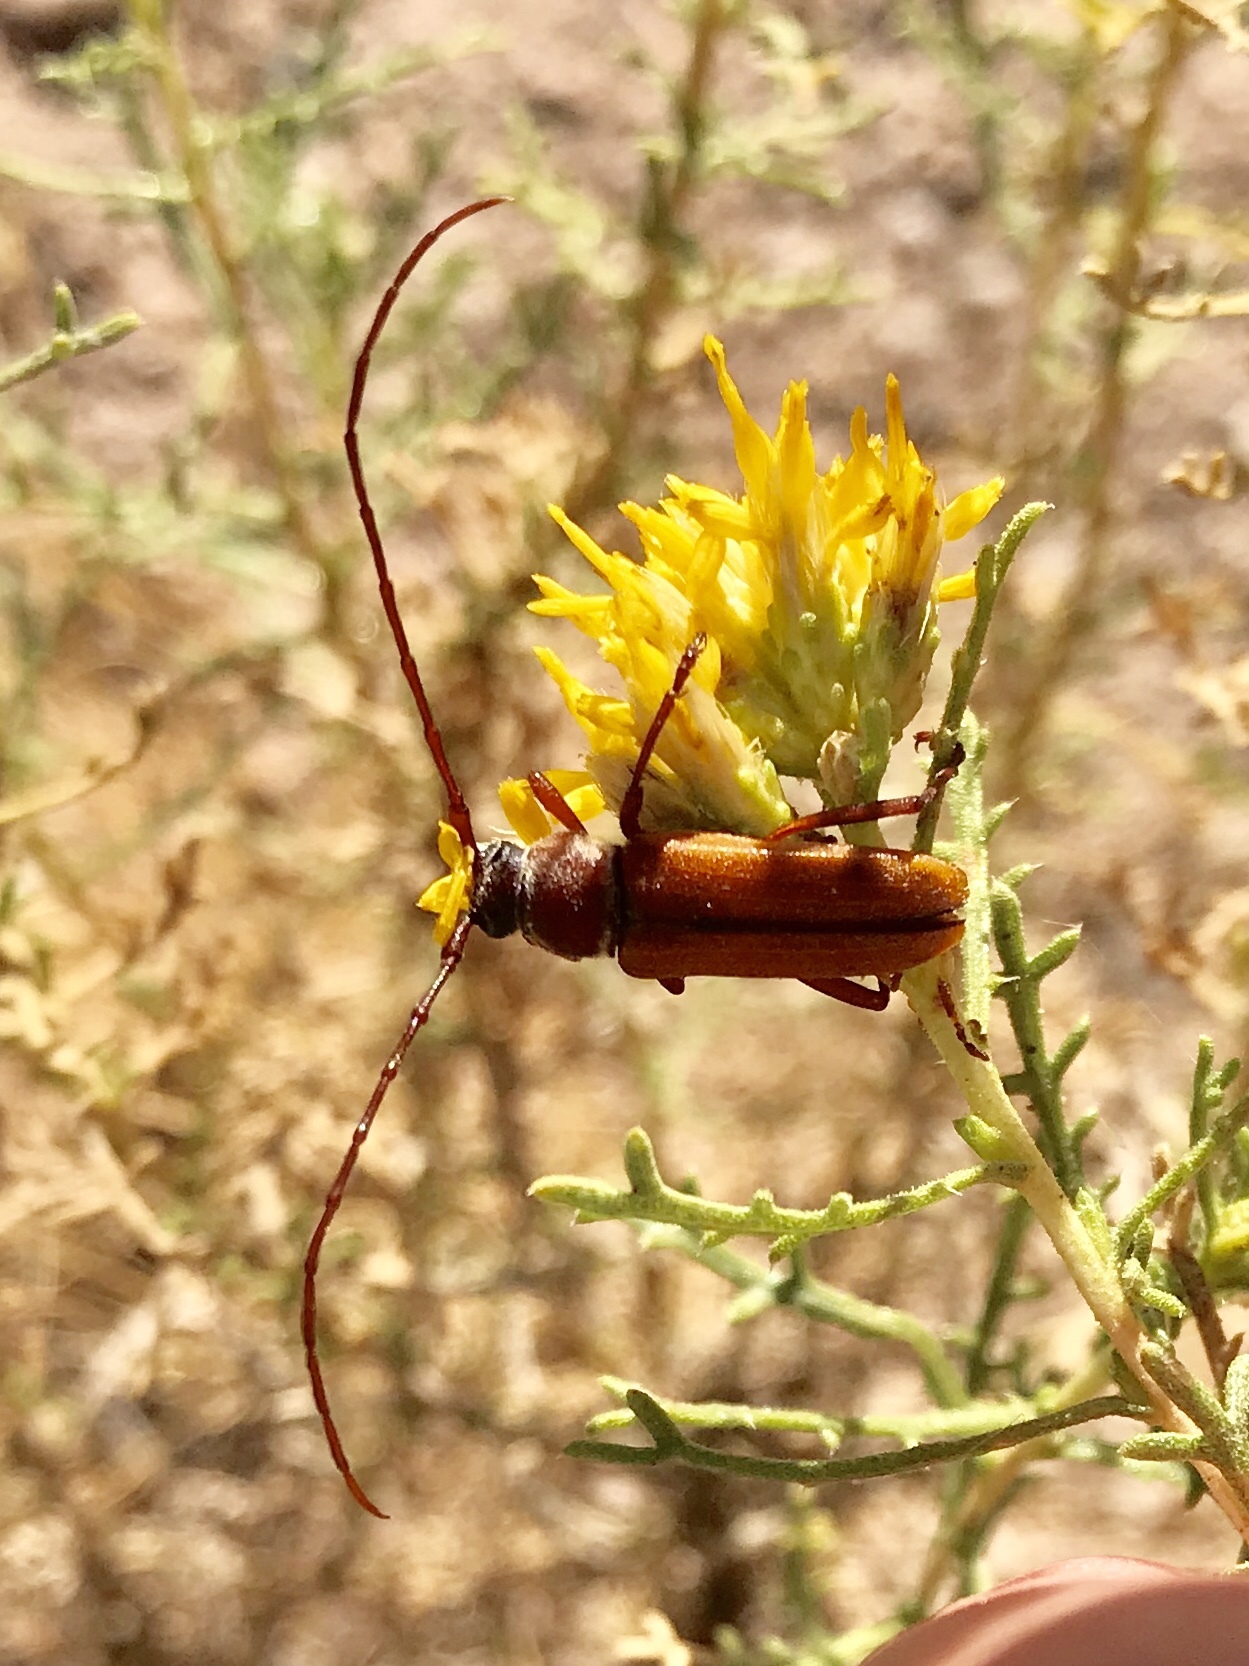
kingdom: Animalia
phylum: Arthropoda
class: Insecta
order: Coleoptera
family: Cerambycidae
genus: Crossidius
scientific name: Crossidius suturalis
